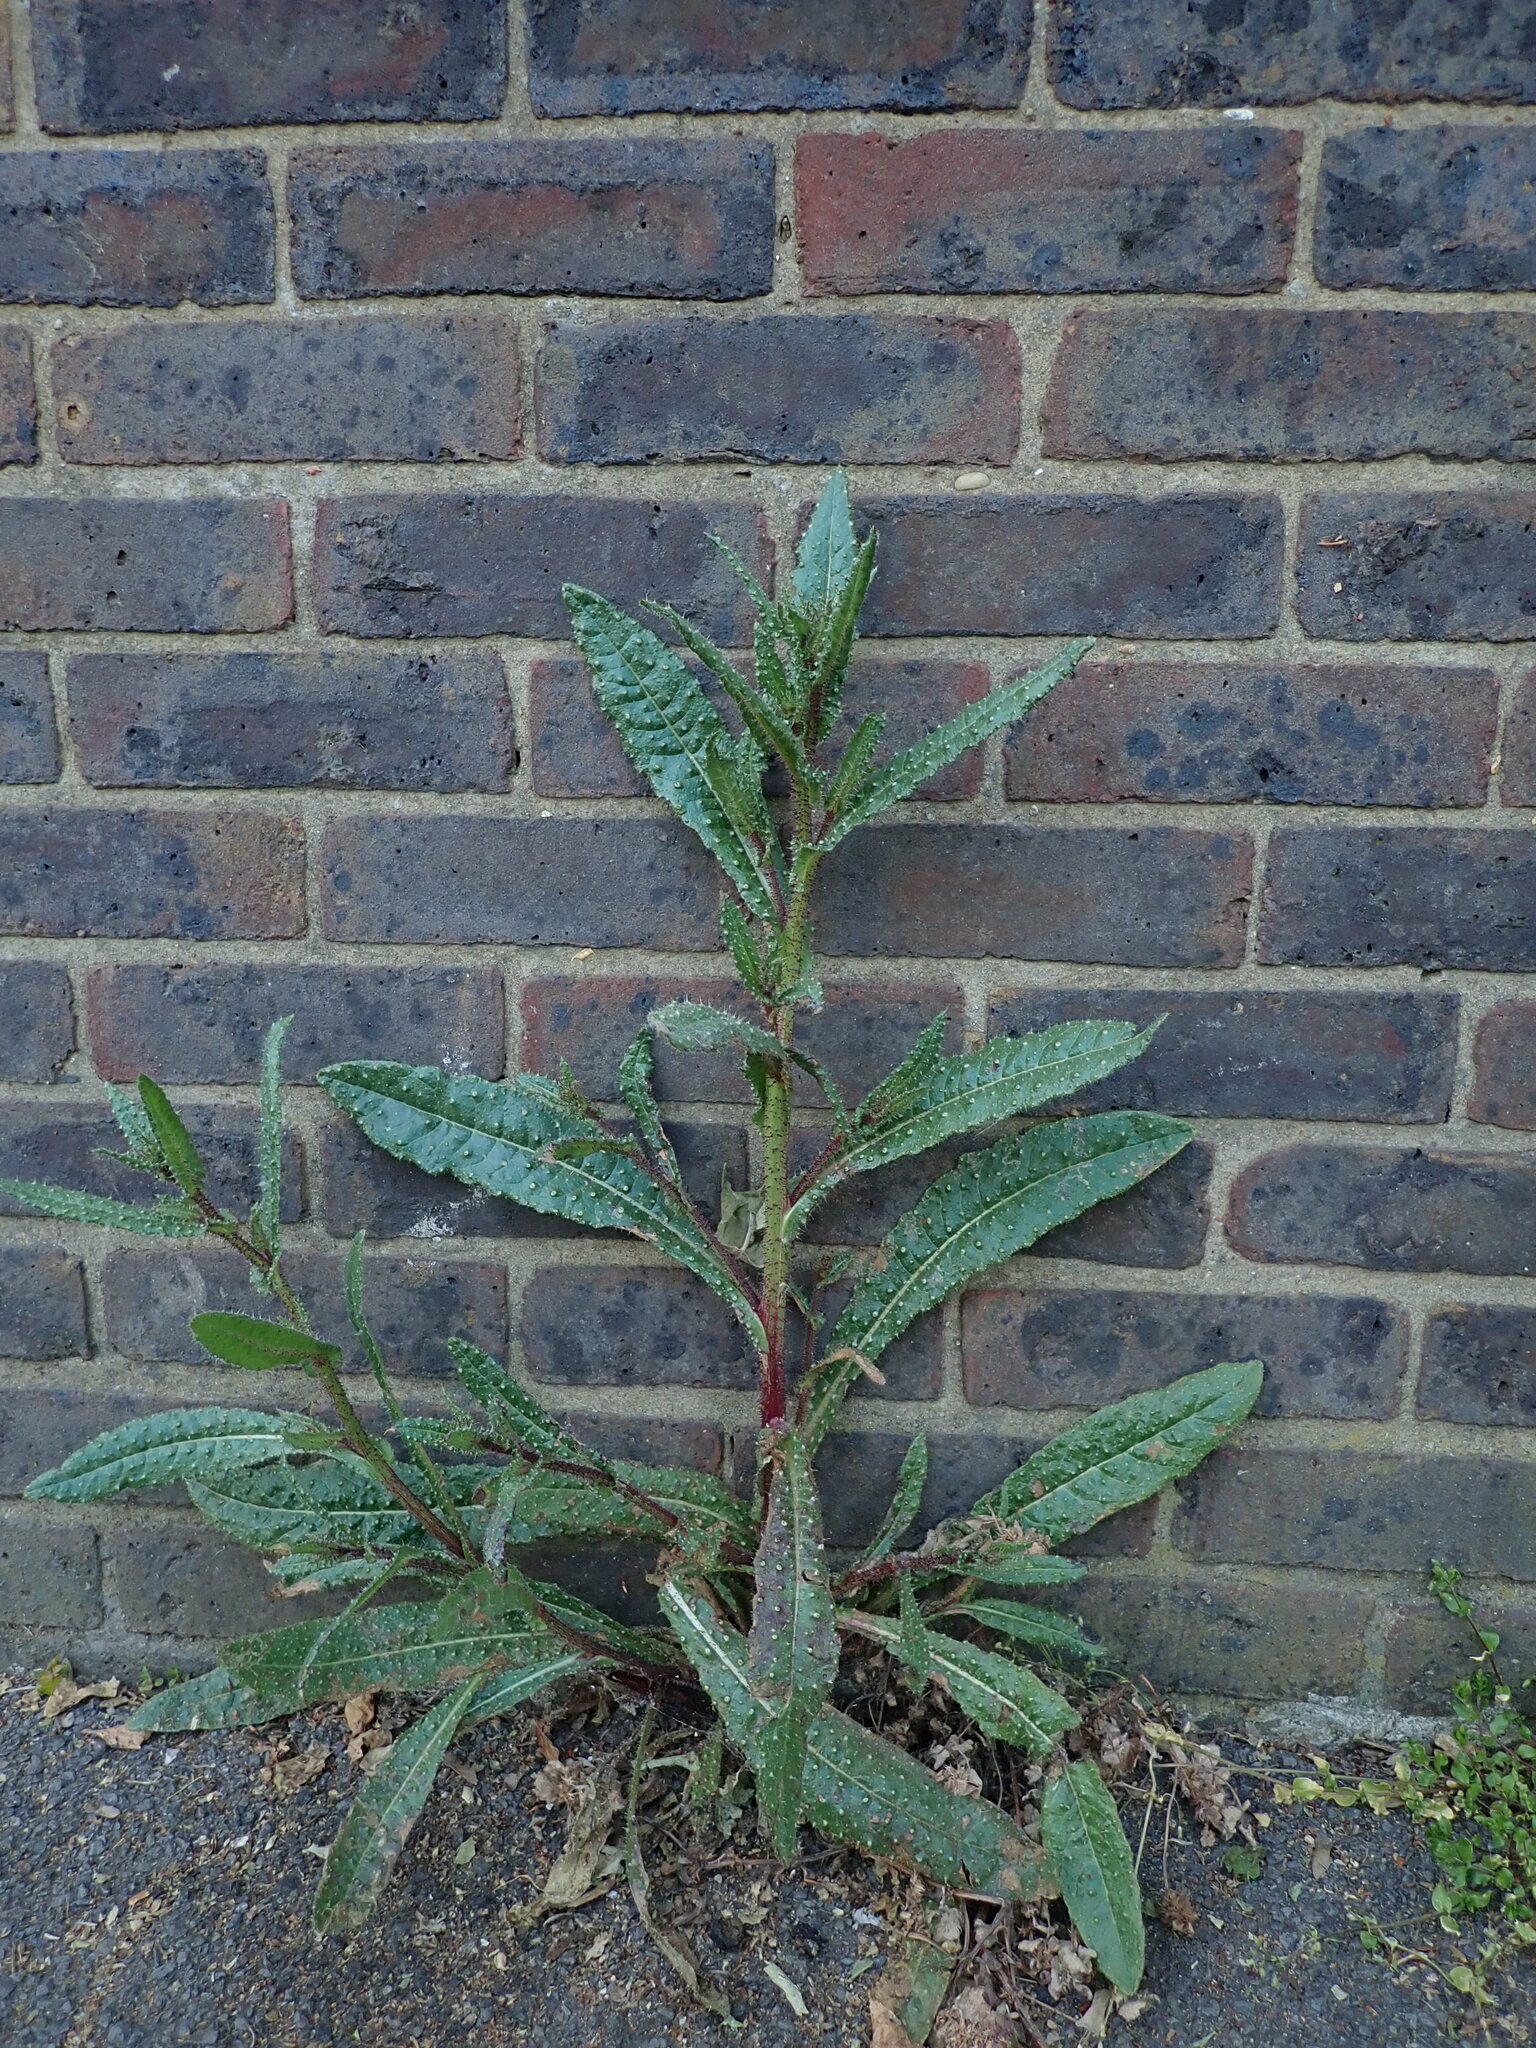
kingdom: Plantae
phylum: Tracheophyta
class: Magnoliopsida
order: Asterales
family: Asteraceae
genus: Helminthotheca
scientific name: Helminthotheca echioides
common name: Ox-tongue
